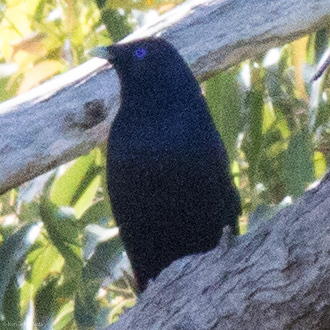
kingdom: Animalia
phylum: Chordata
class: Aves
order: Passeriformes
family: Ptilonorhynchidae
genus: Ptilonorhynchus
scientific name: Ptilonorhynchus violaceus
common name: Satin bowerbird
